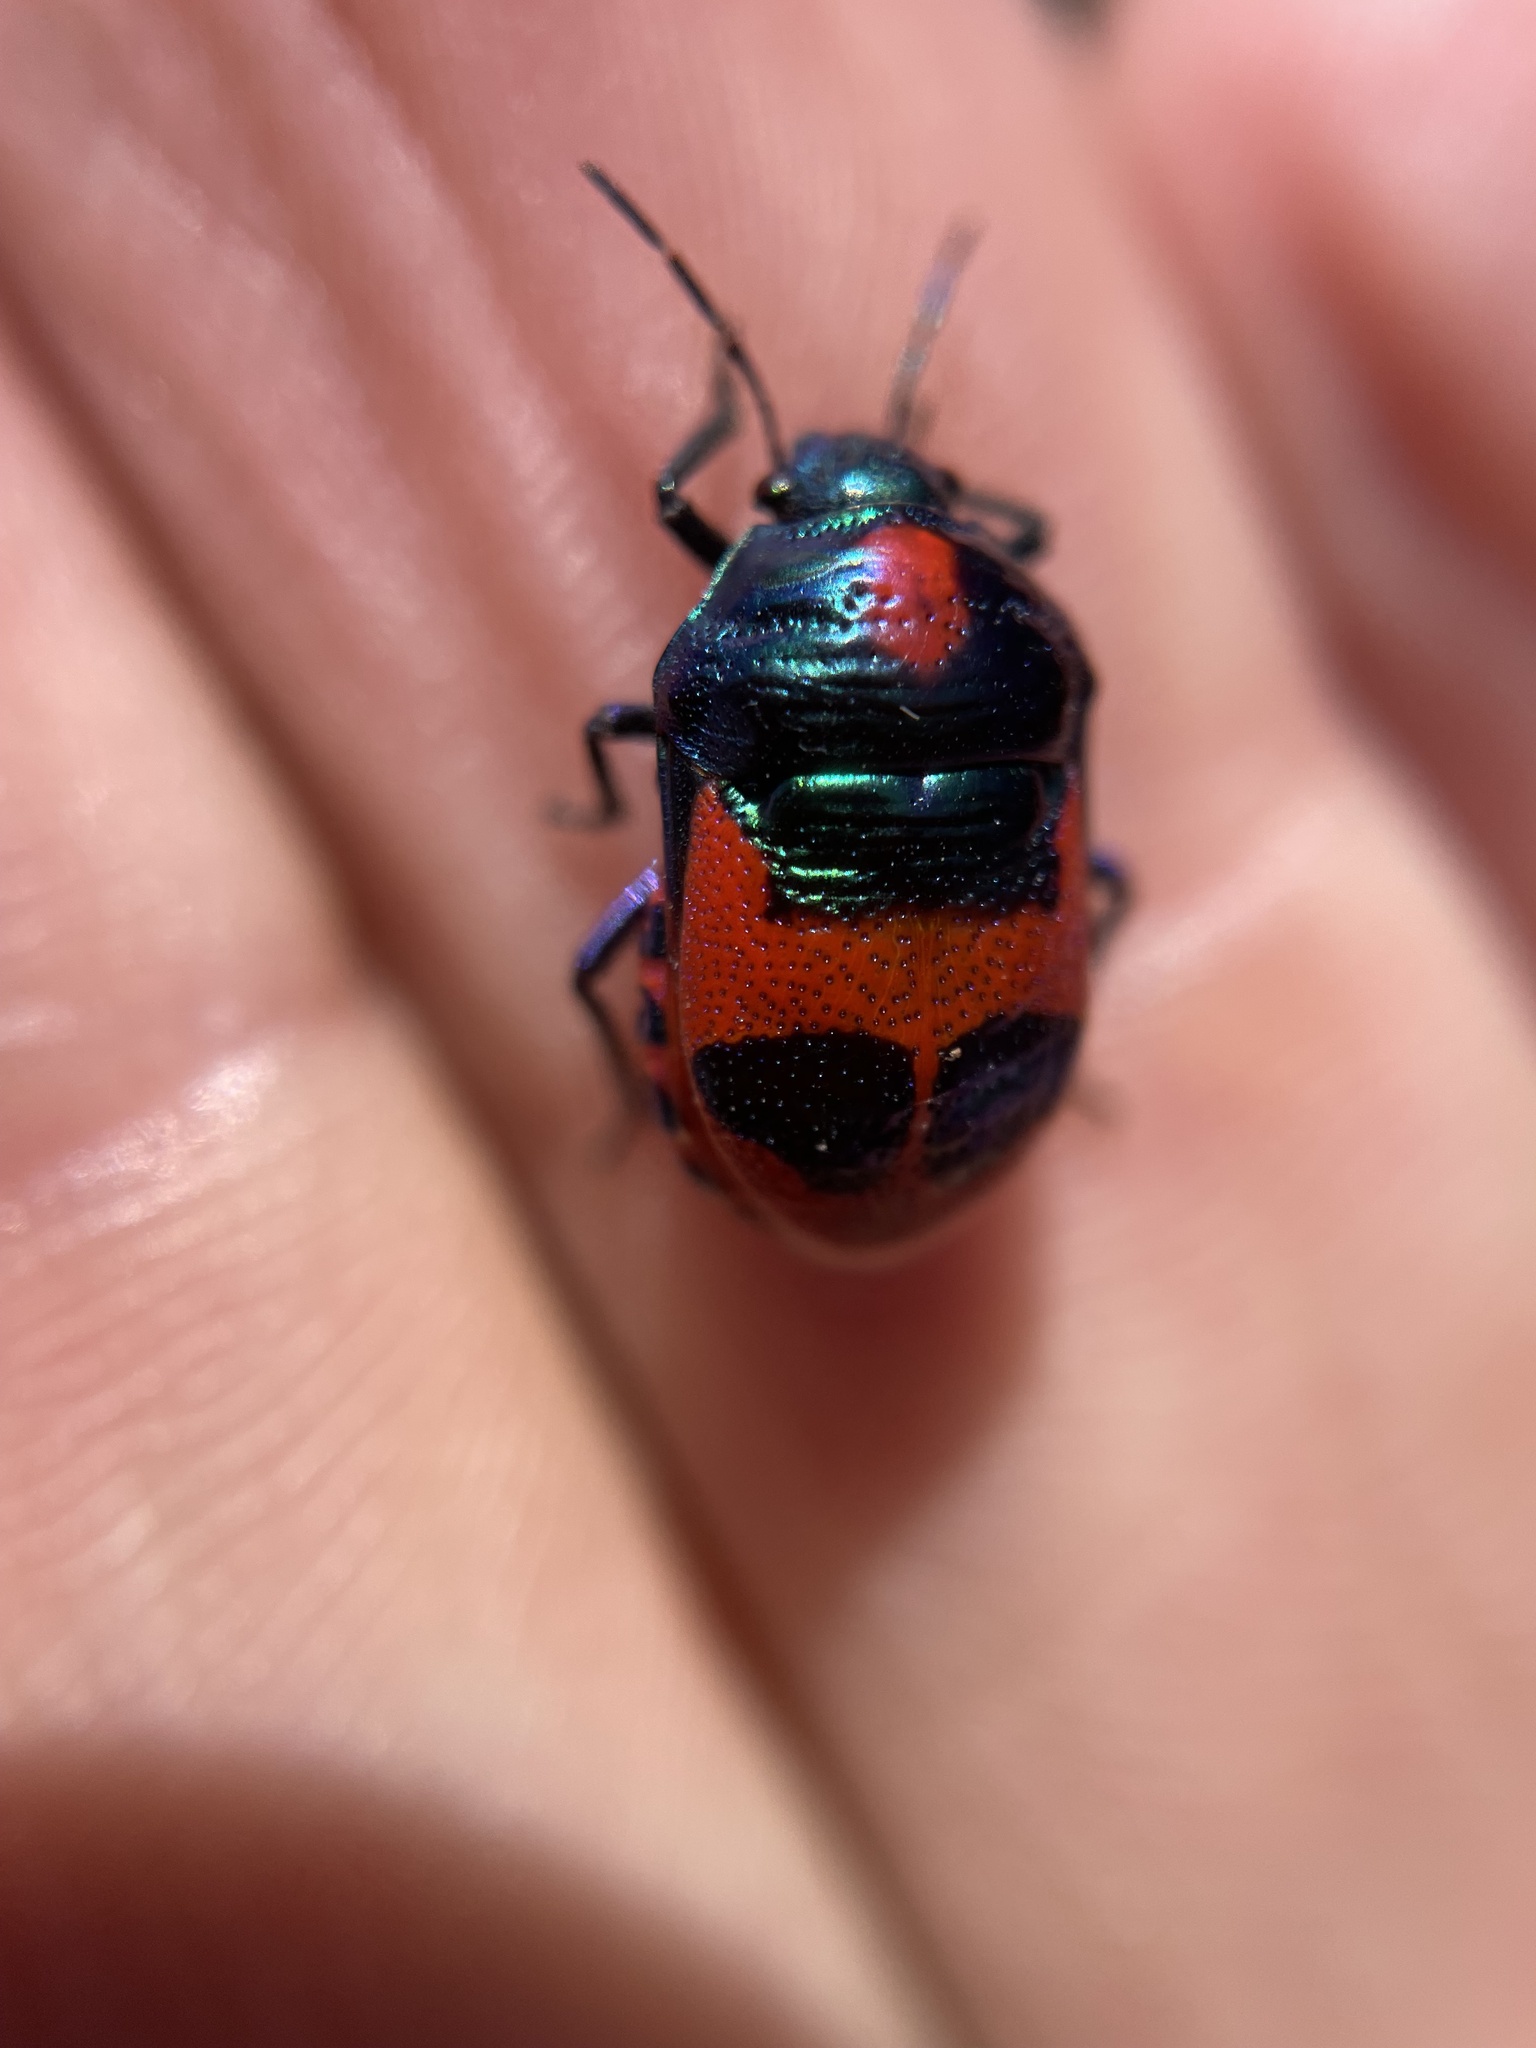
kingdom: Animalia
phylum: Arthropoda
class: Insecta
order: Hemiptera
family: Scutelleridae
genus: Choerocoris
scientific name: Choerocoris paganus
